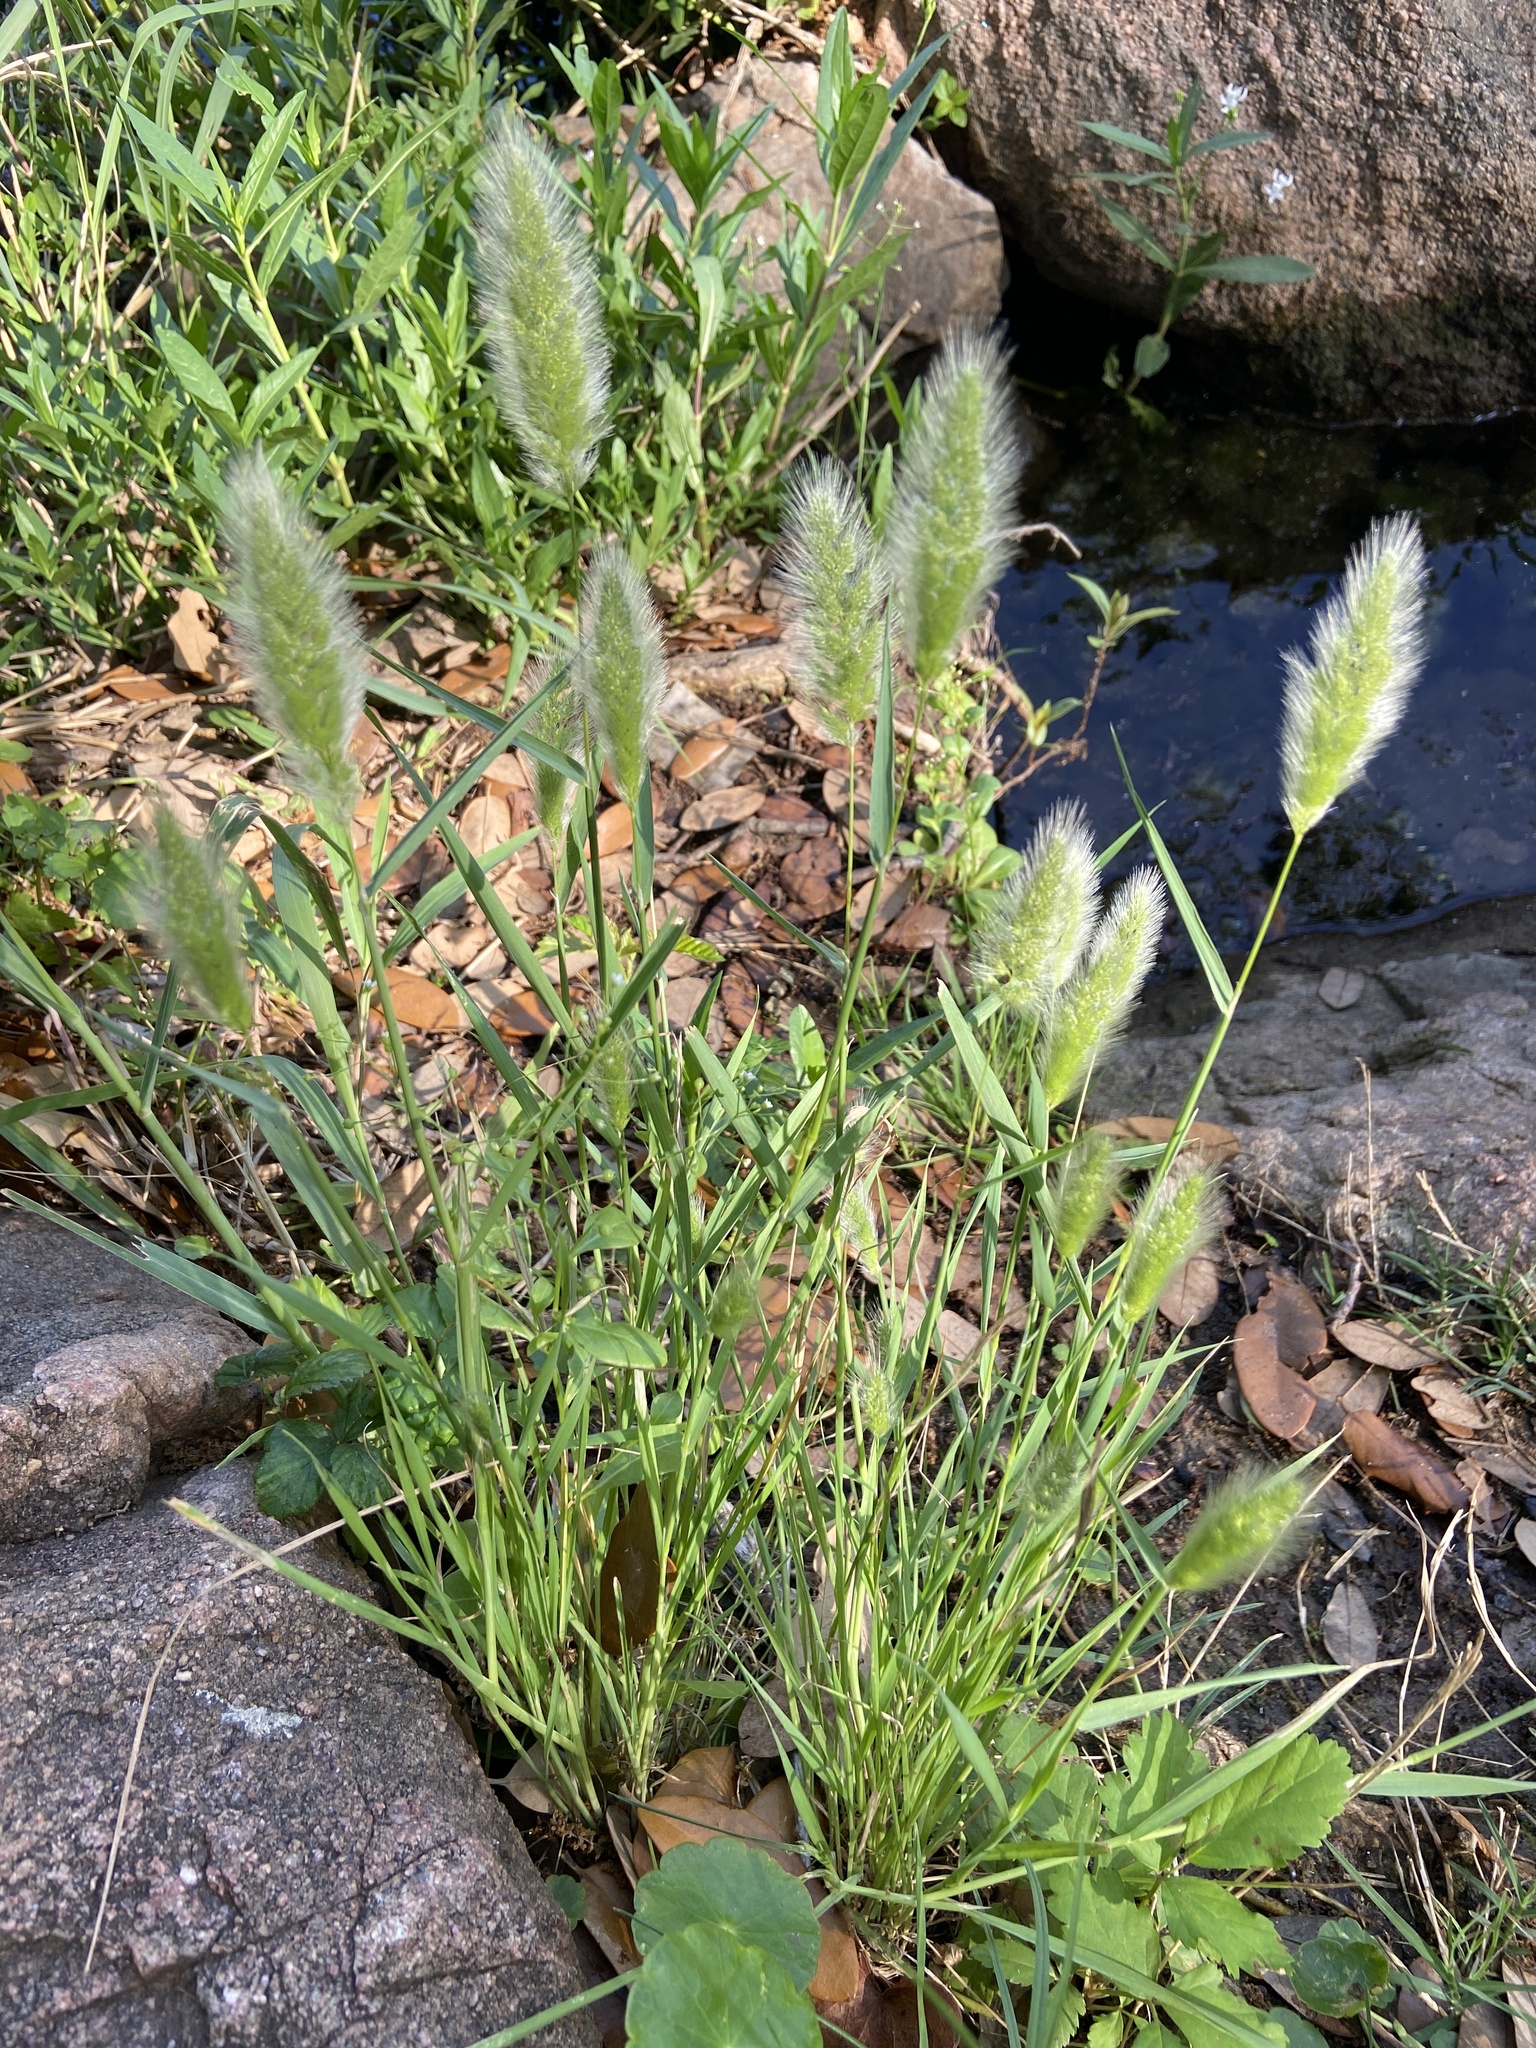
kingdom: Plantae
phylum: Tracheophyta
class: Liliopsida
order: Poales
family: Poaceae
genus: Polypogon
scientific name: Polypogon monspeliensis
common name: Annual rabbitsfoot grass
